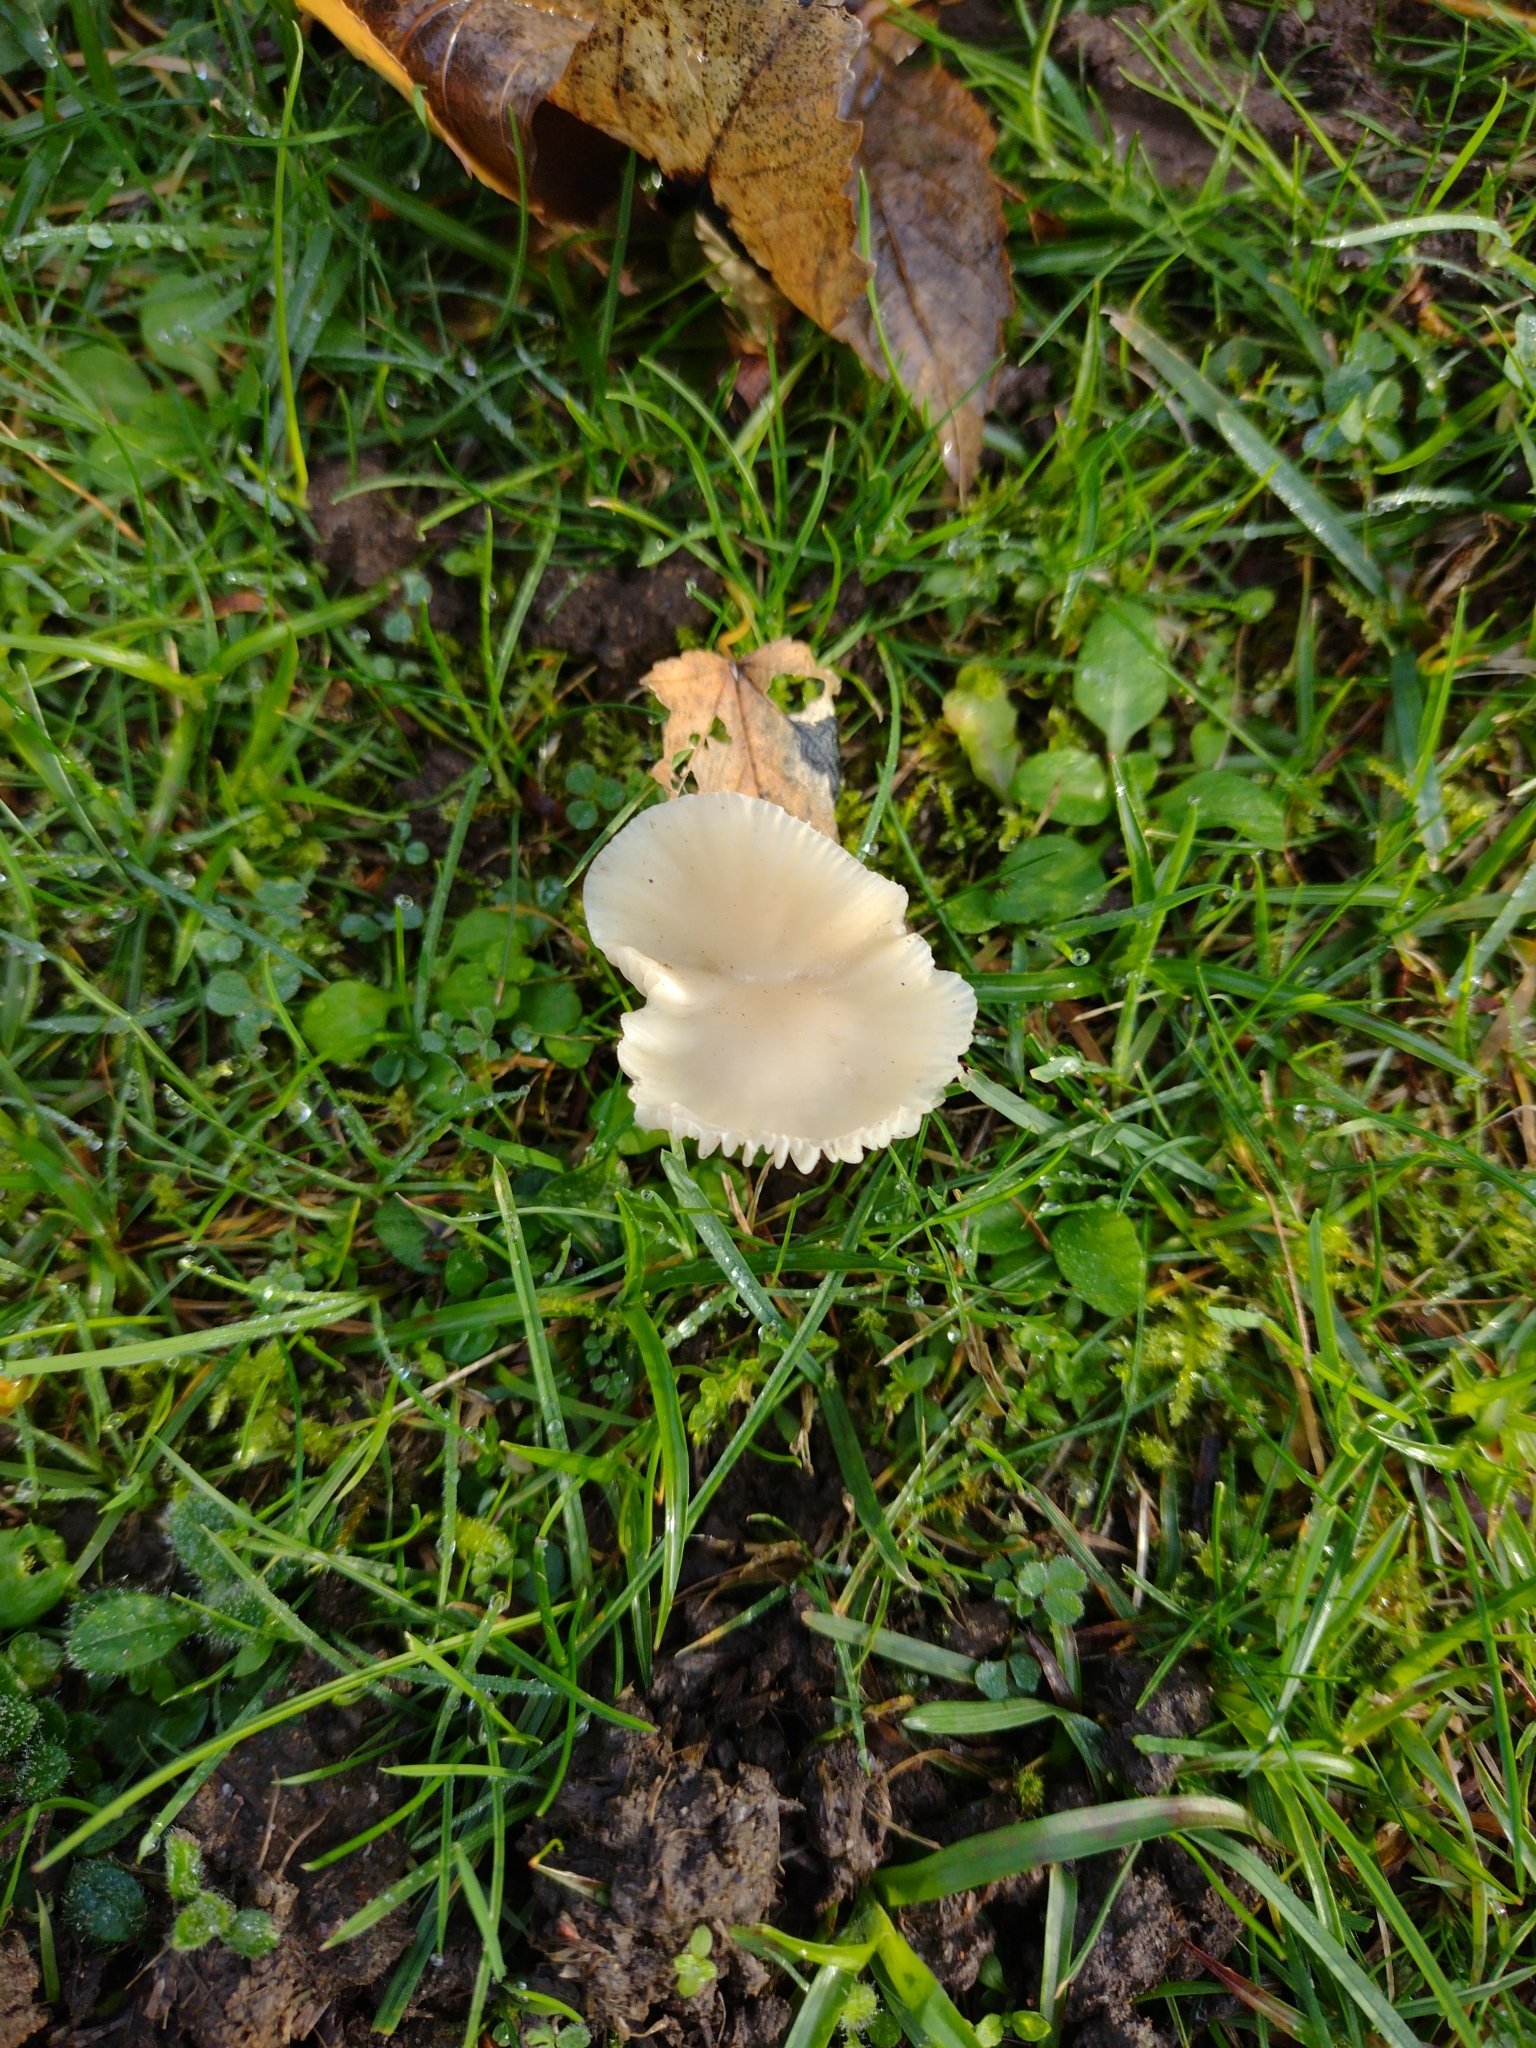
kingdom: Fungi
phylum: Basidiomycota
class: Agaricomycetes
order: Agaricales
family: Hygrophoraceae
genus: Cuphophyllus
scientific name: Cuphophyllus virgineus
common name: Snowy waxcap
